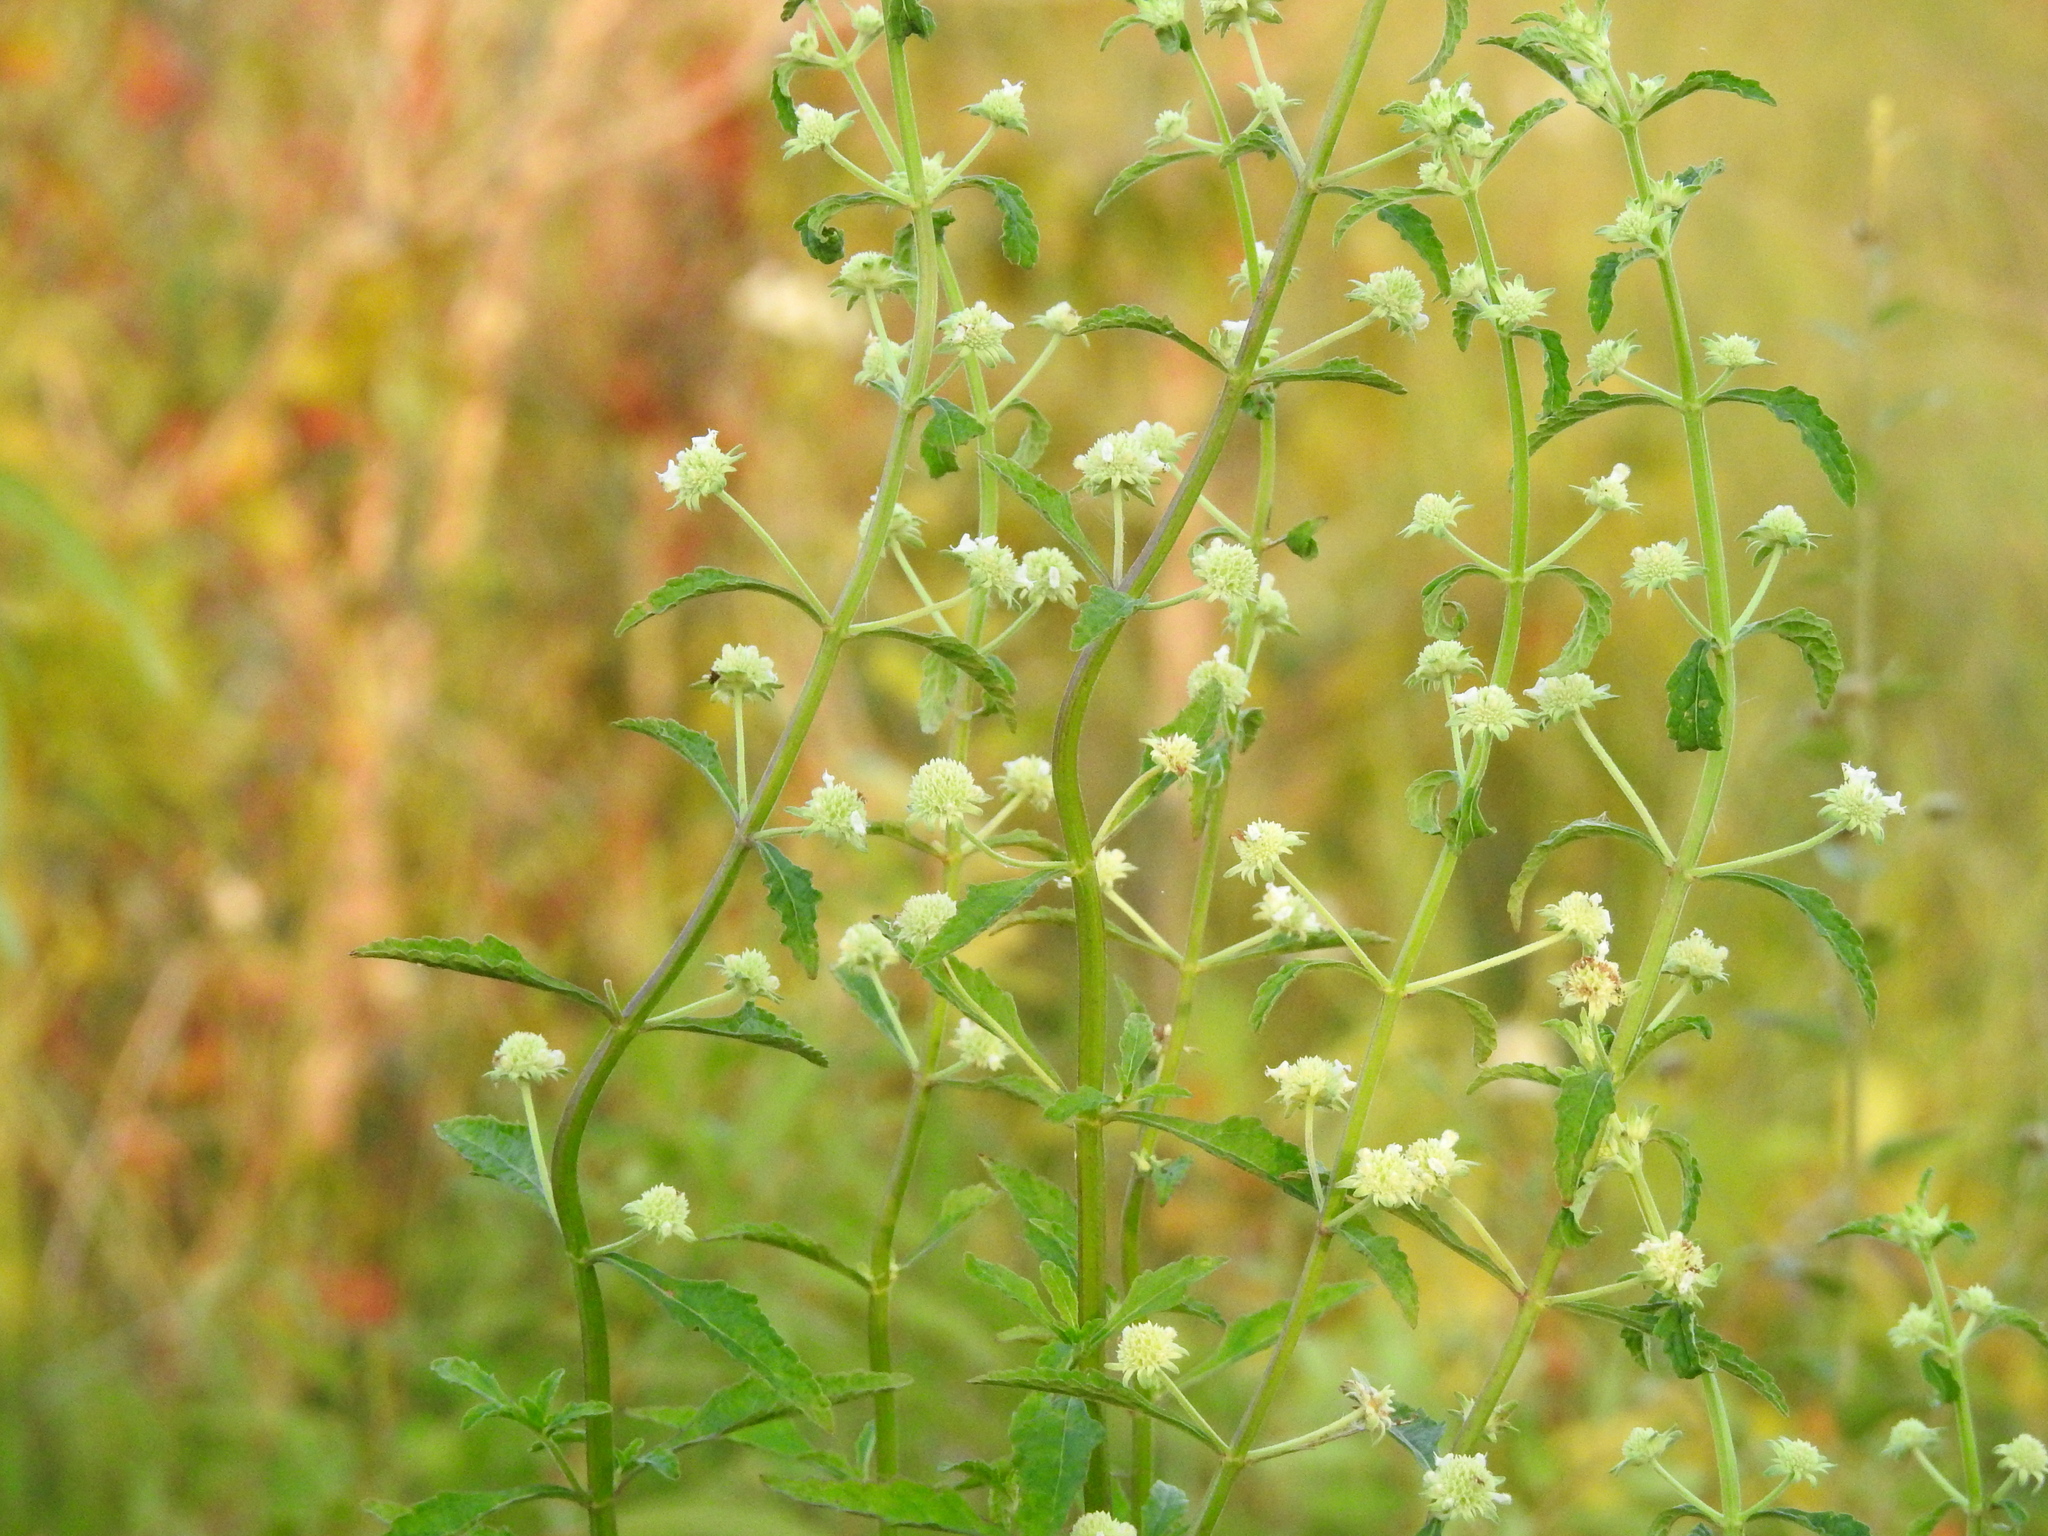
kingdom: Plantae
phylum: Tracheophyta
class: Magnoliopsida
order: Lamiales
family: Lamiaceae
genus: Hyptis
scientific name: Hyptis alata
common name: Cluster bush-mint
